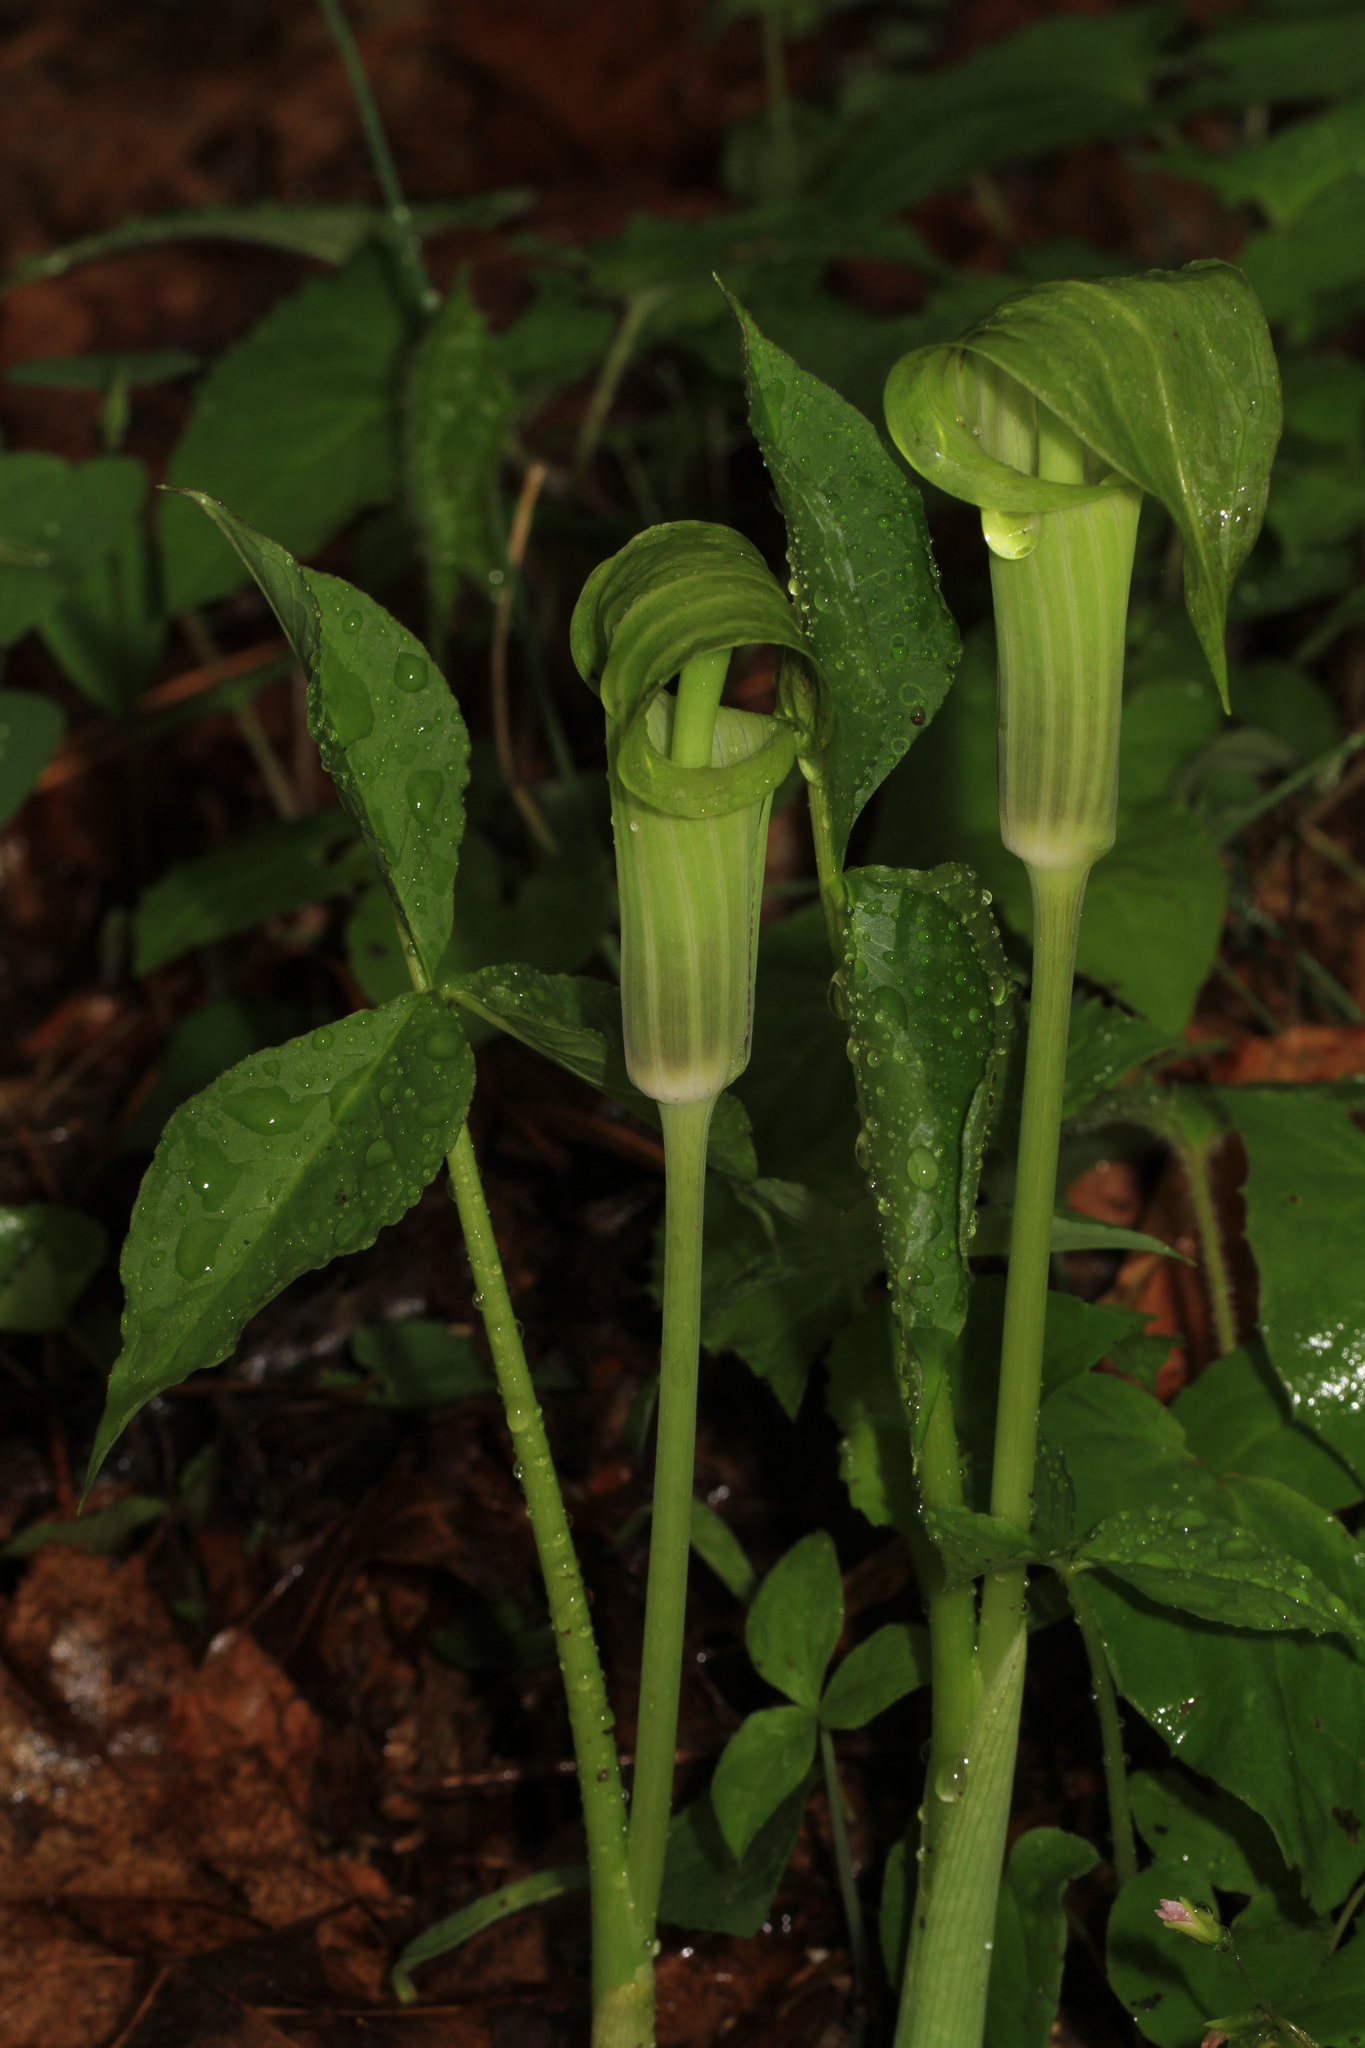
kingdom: Plantae
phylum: Tracheophyta
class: Liliopsida
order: Alismatales
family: Araceae
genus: Arisaema
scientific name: Arisaema triphyllum
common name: Jack-in-the-pulpit
